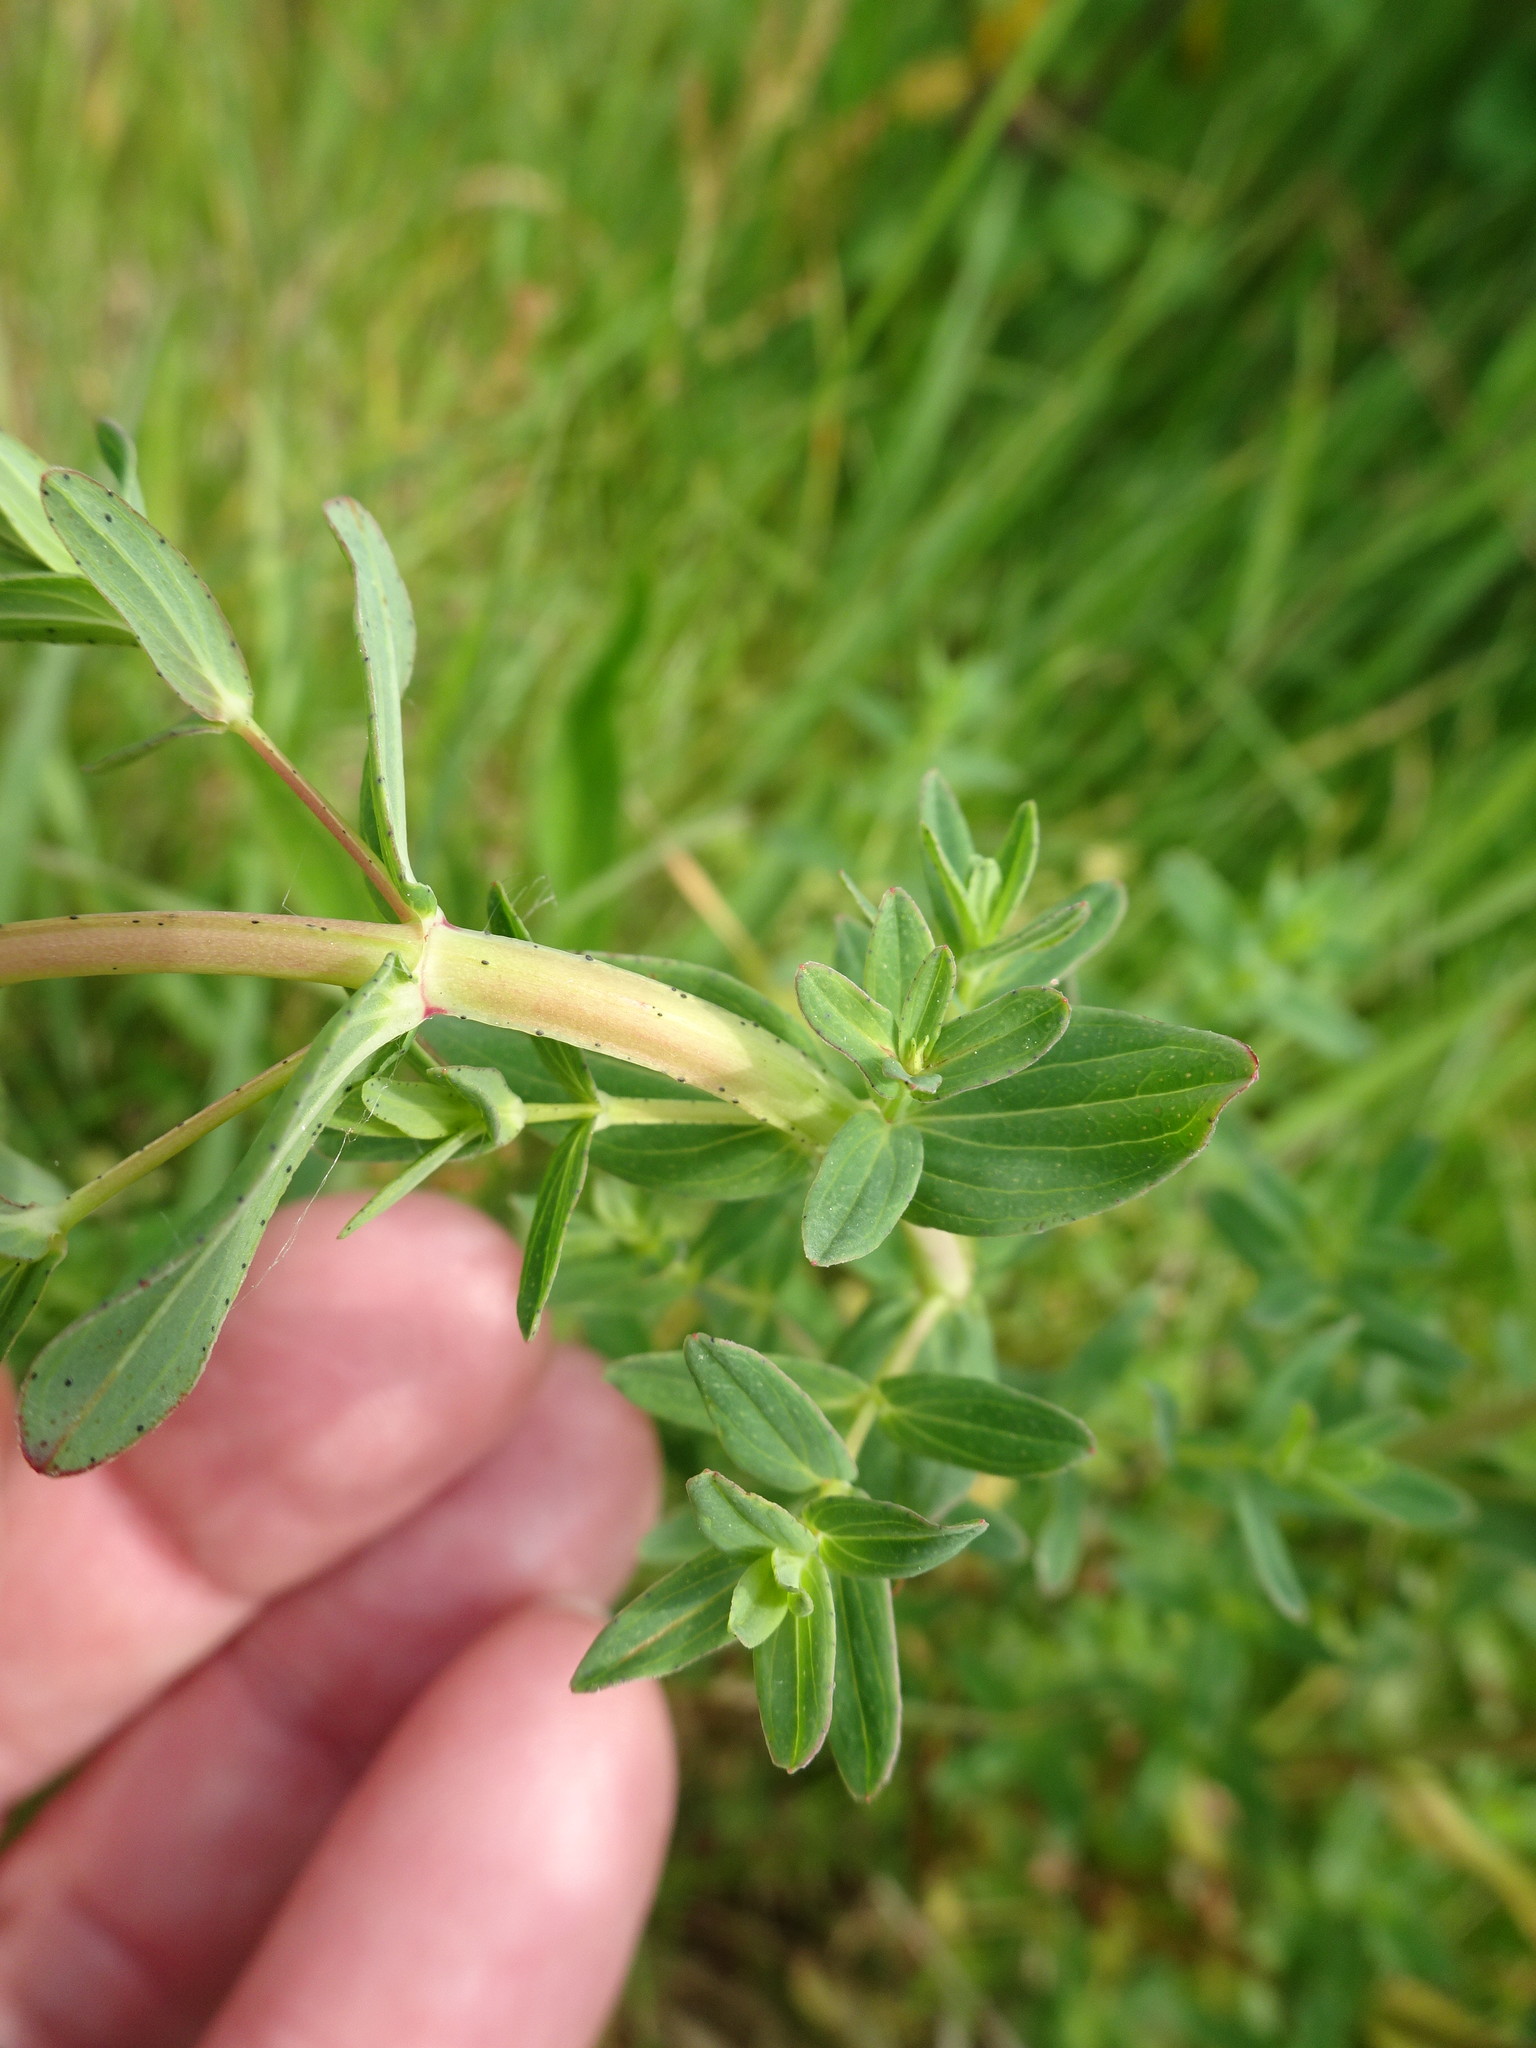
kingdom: Plantae
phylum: Tracheophyta
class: Magnoliopsida
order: Malpighiales
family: Hypericaceae
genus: Hypericum
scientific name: Hypericum perforatum
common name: Common st. johnswort
